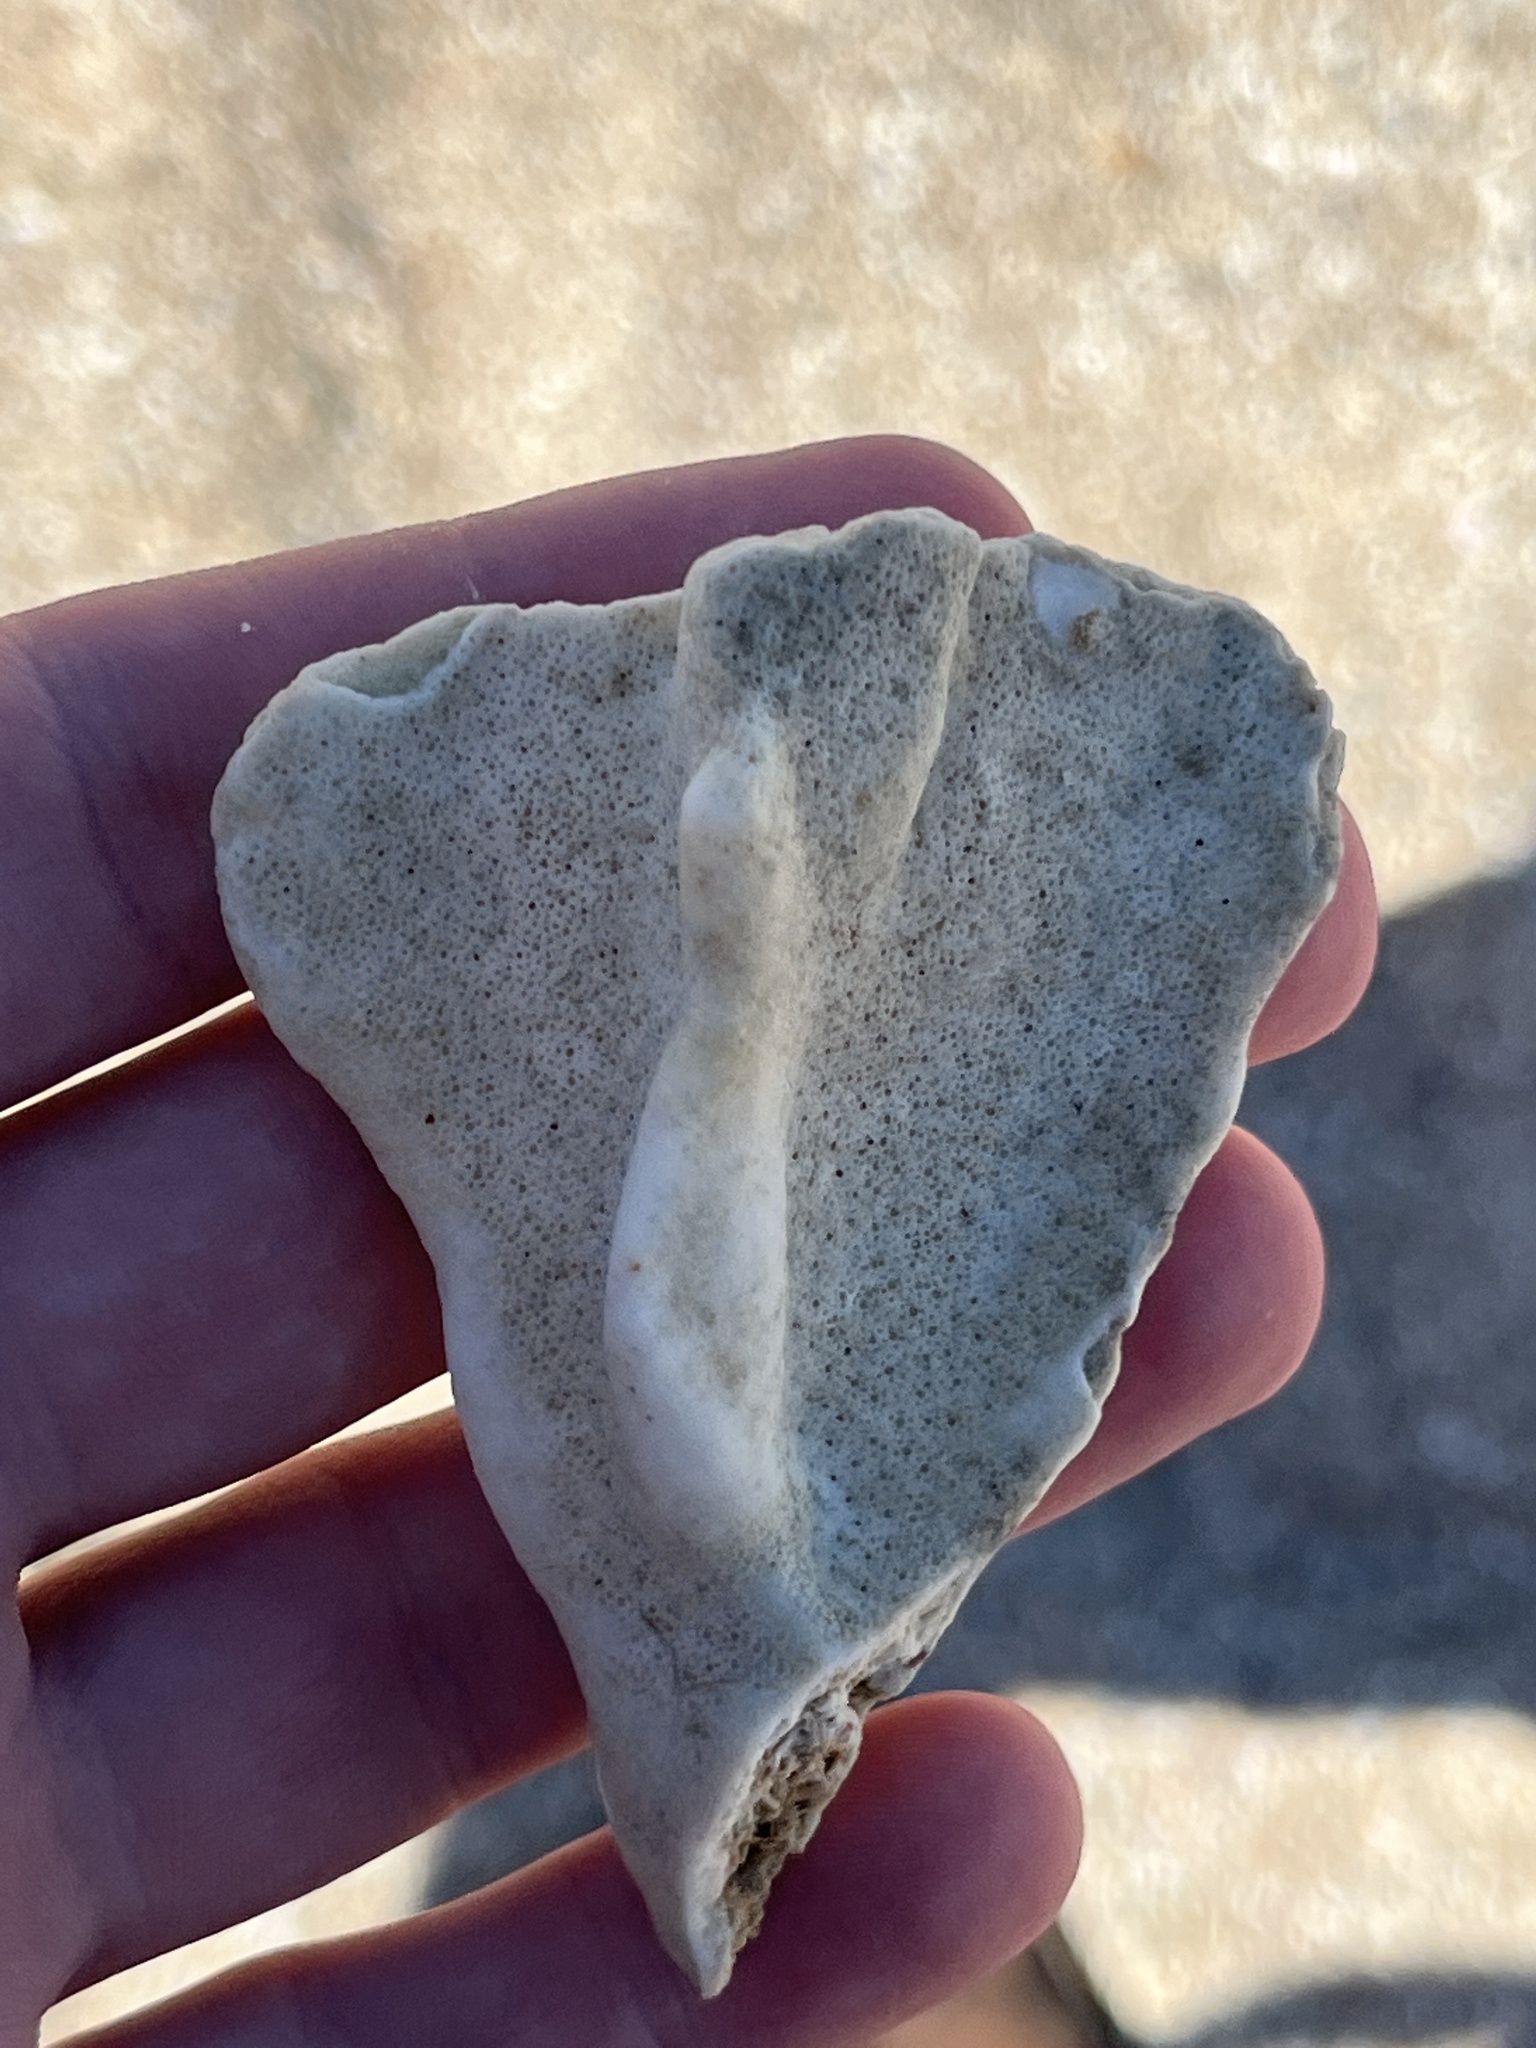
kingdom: Animalia
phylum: Cnidaria
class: Hydrozoa
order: Anthoathecata
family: Milleporidae
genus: Millepora
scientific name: Millepora complanata
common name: Bladed fire coral
